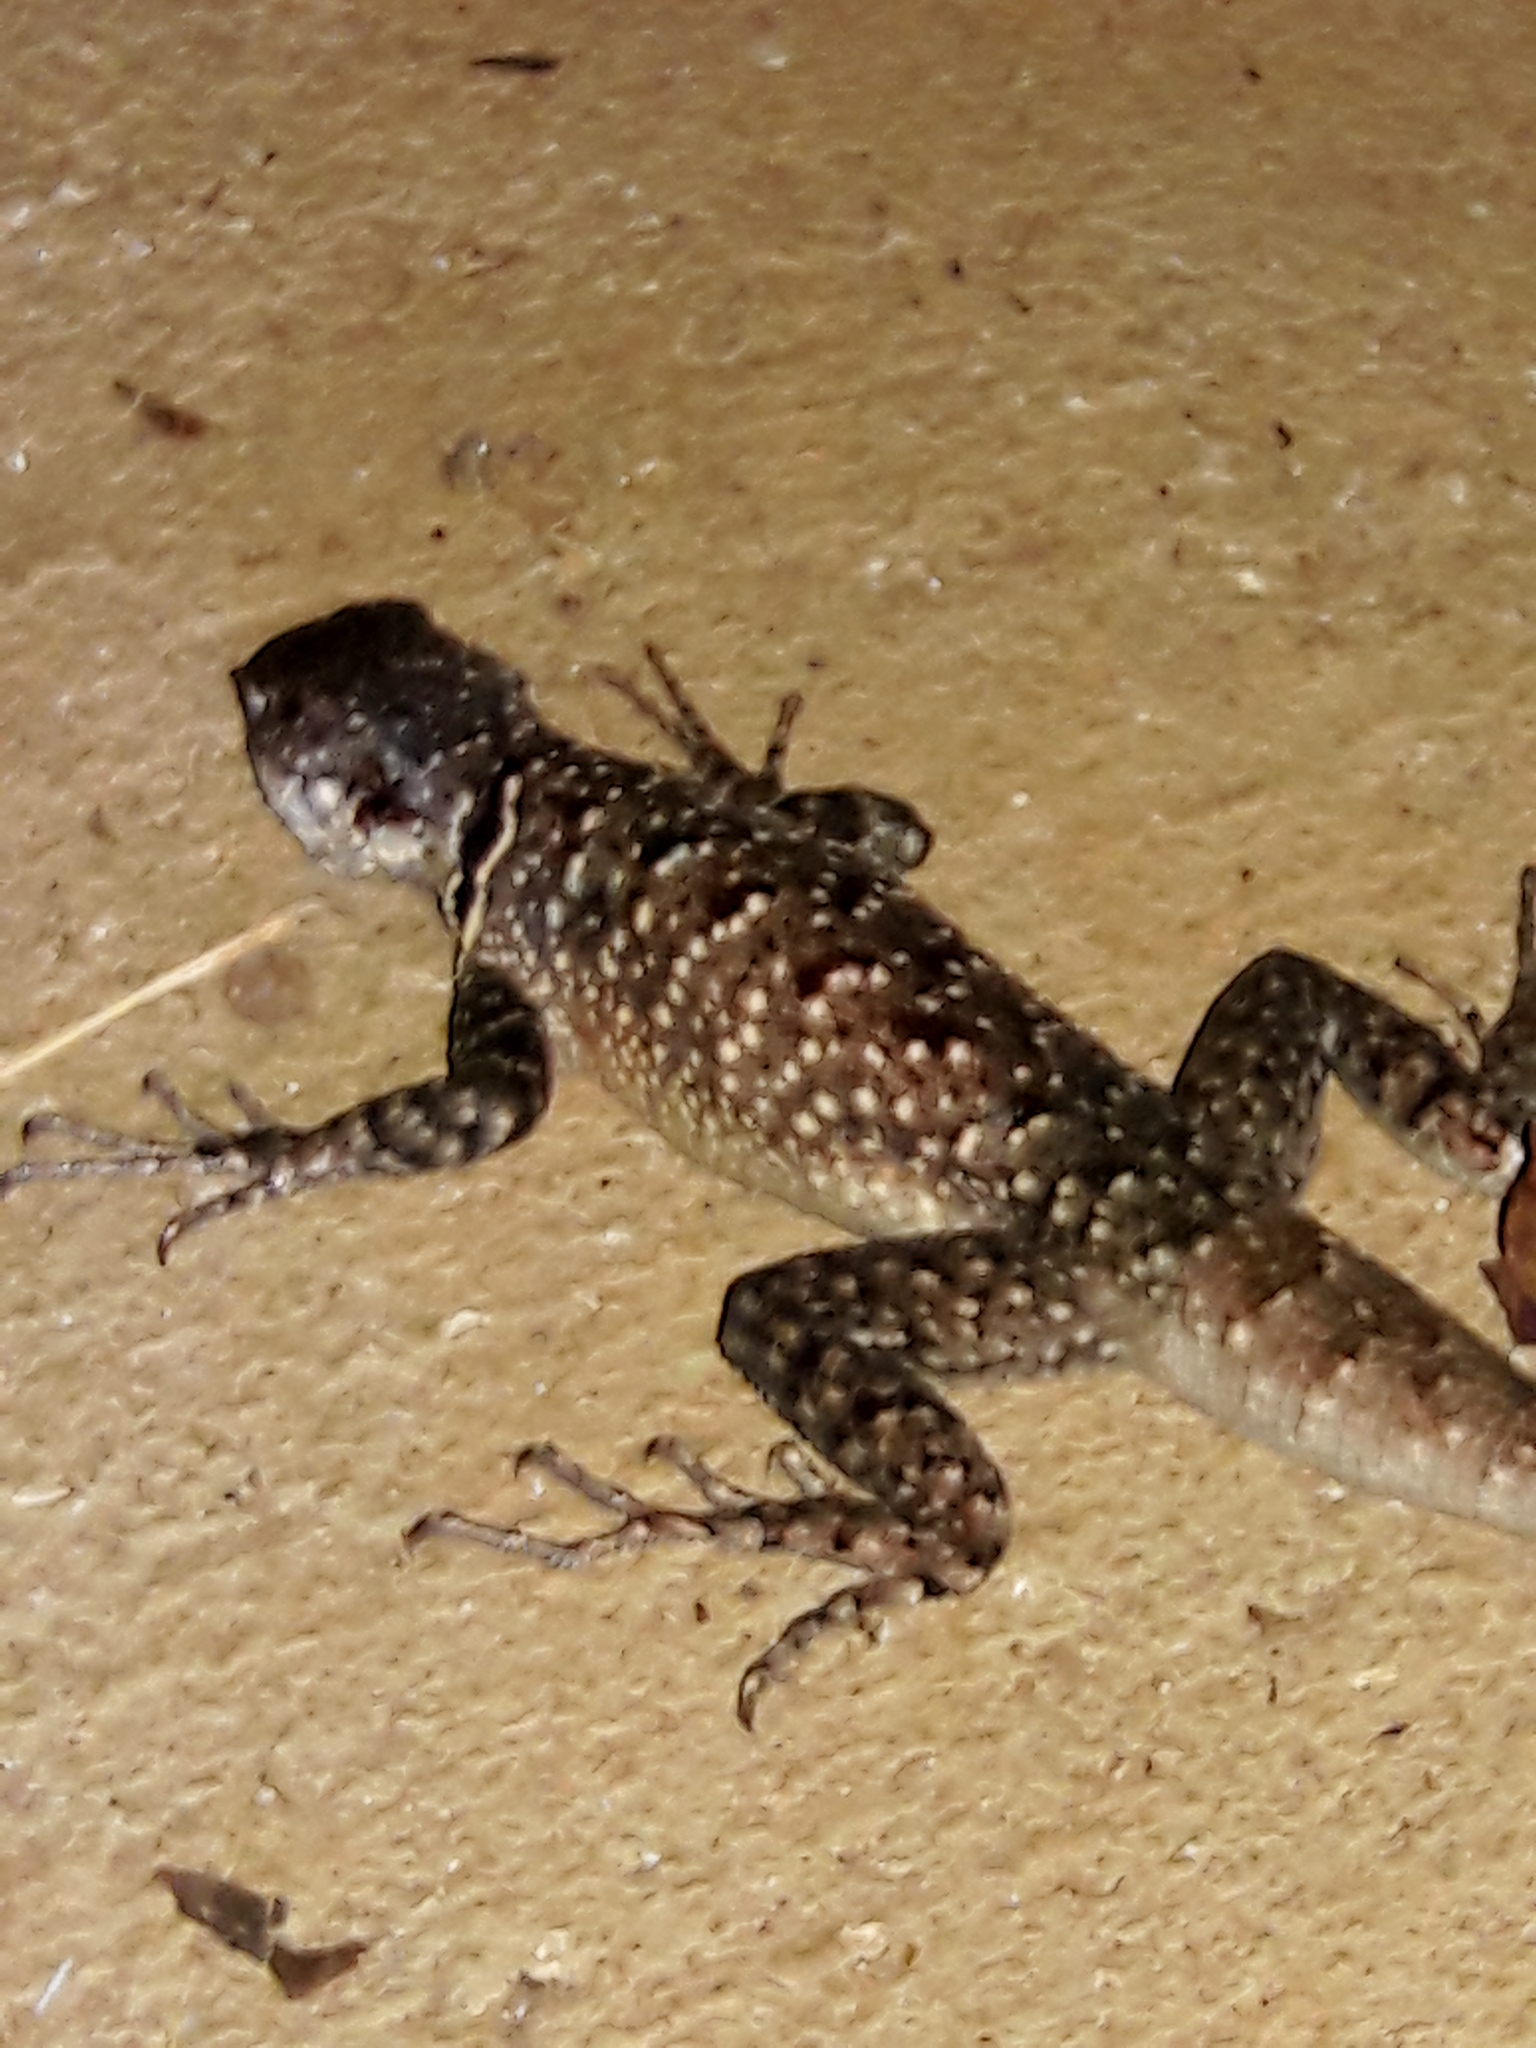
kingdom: Animalia
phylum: Chordata
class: Squamata
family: Tropiduridae
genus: Tropidurus
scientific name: Tropidurus torquatus
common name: Amazon lava lizard
